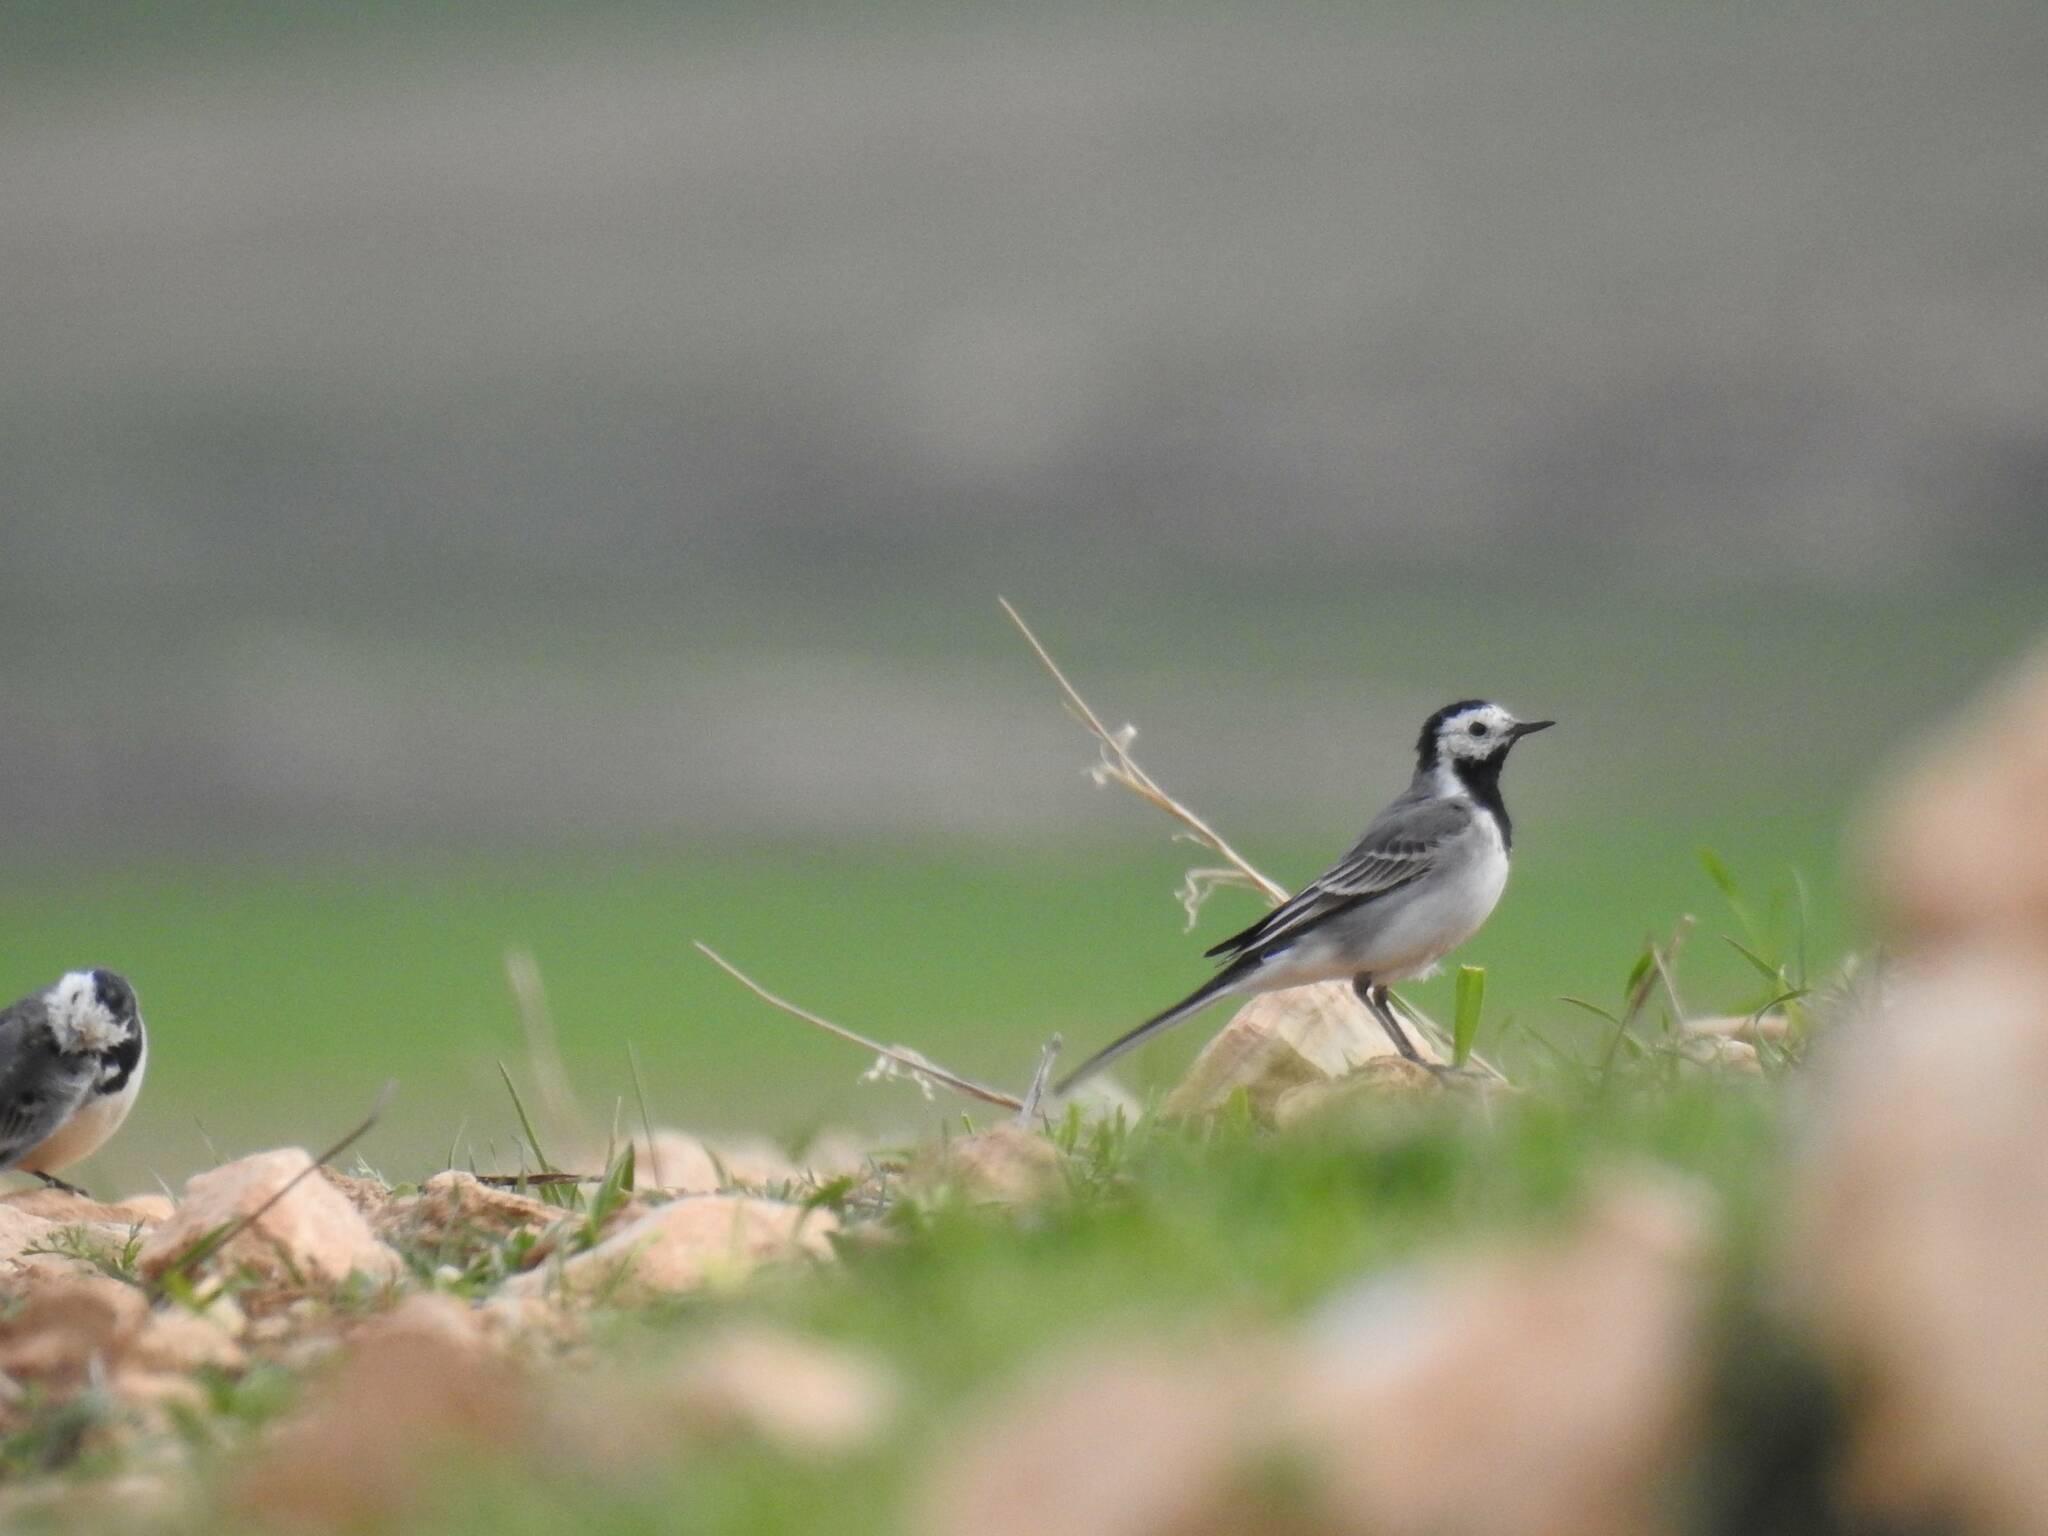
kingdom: Animalia
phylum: Chordata
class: Aves
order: Passeriformes
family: Motacillidae
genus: Motacilla
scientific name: Motacilla alba
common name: White wagtail
